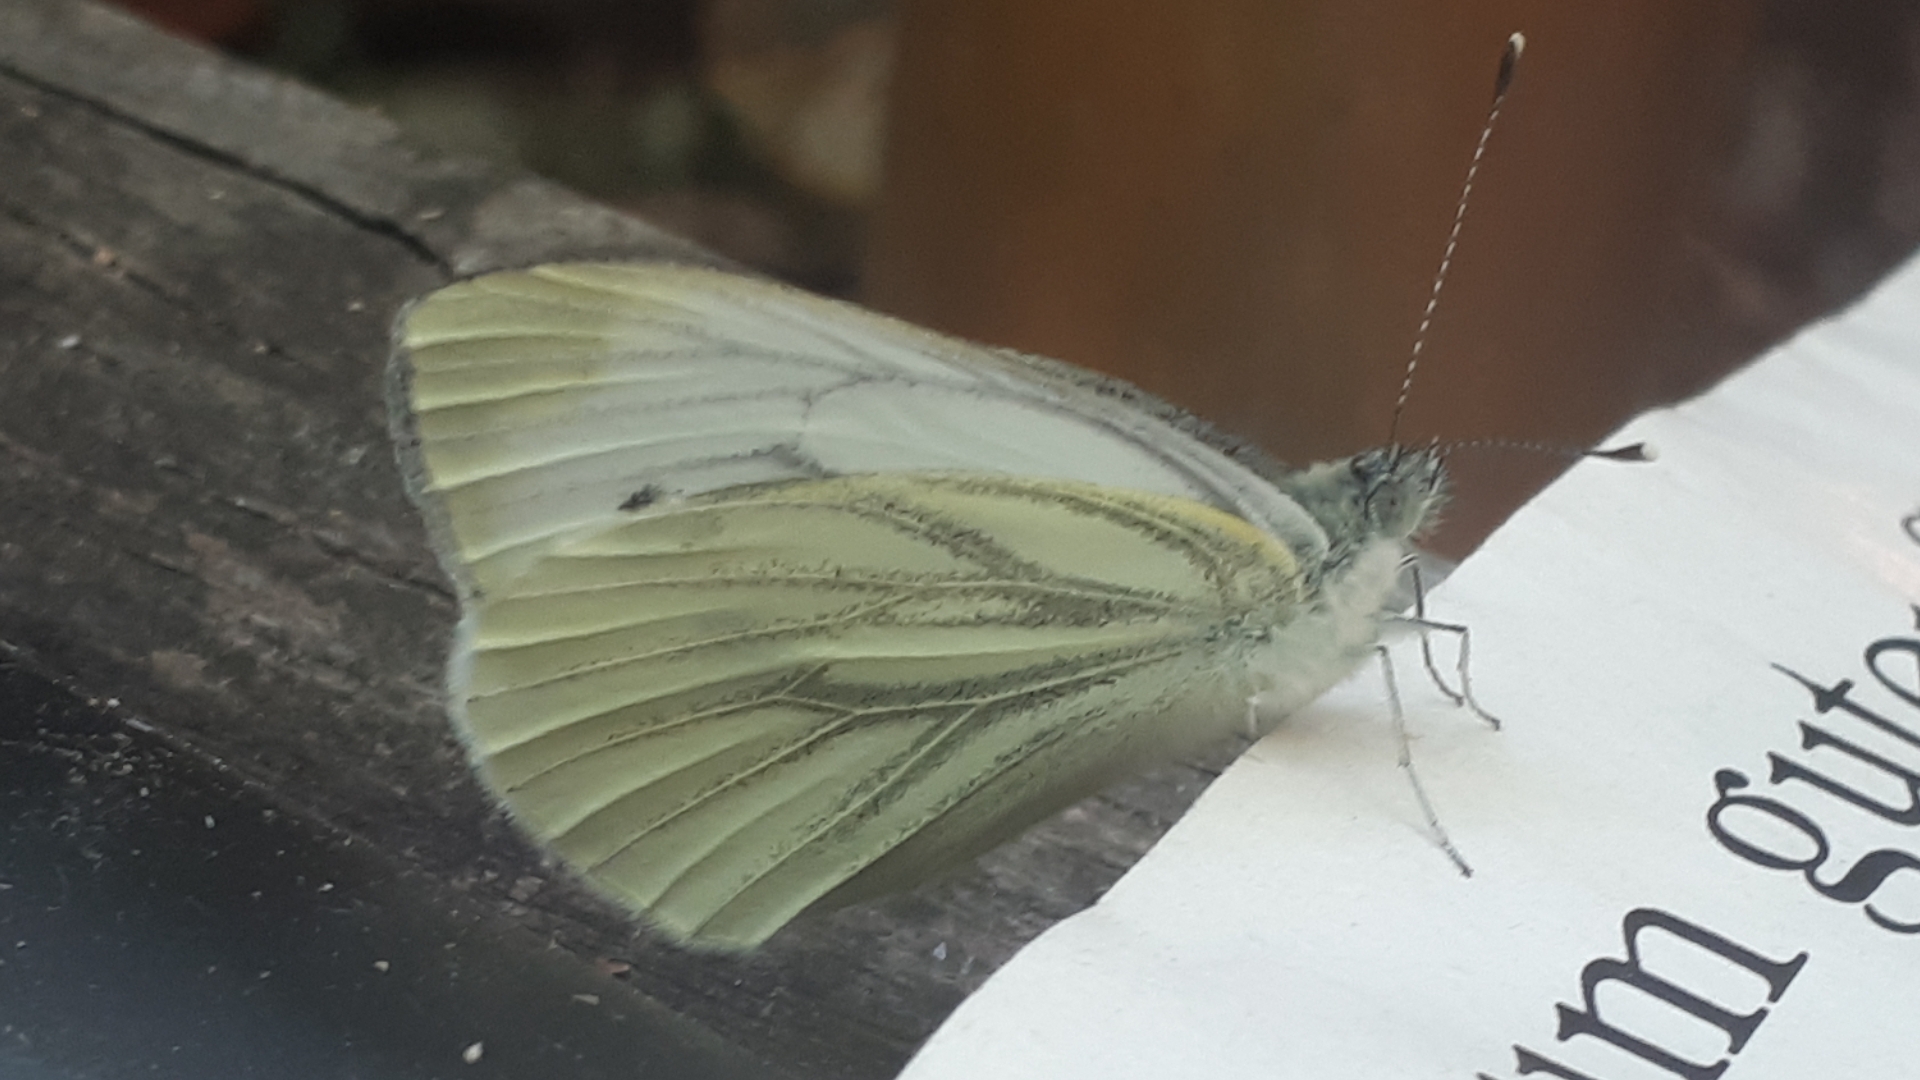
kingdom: Animalia
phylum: Arthropoda
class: Insecta
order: Lepidoptera
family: Pieridae
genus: Pieris
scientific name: Pieris napi
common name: Green-veined white
